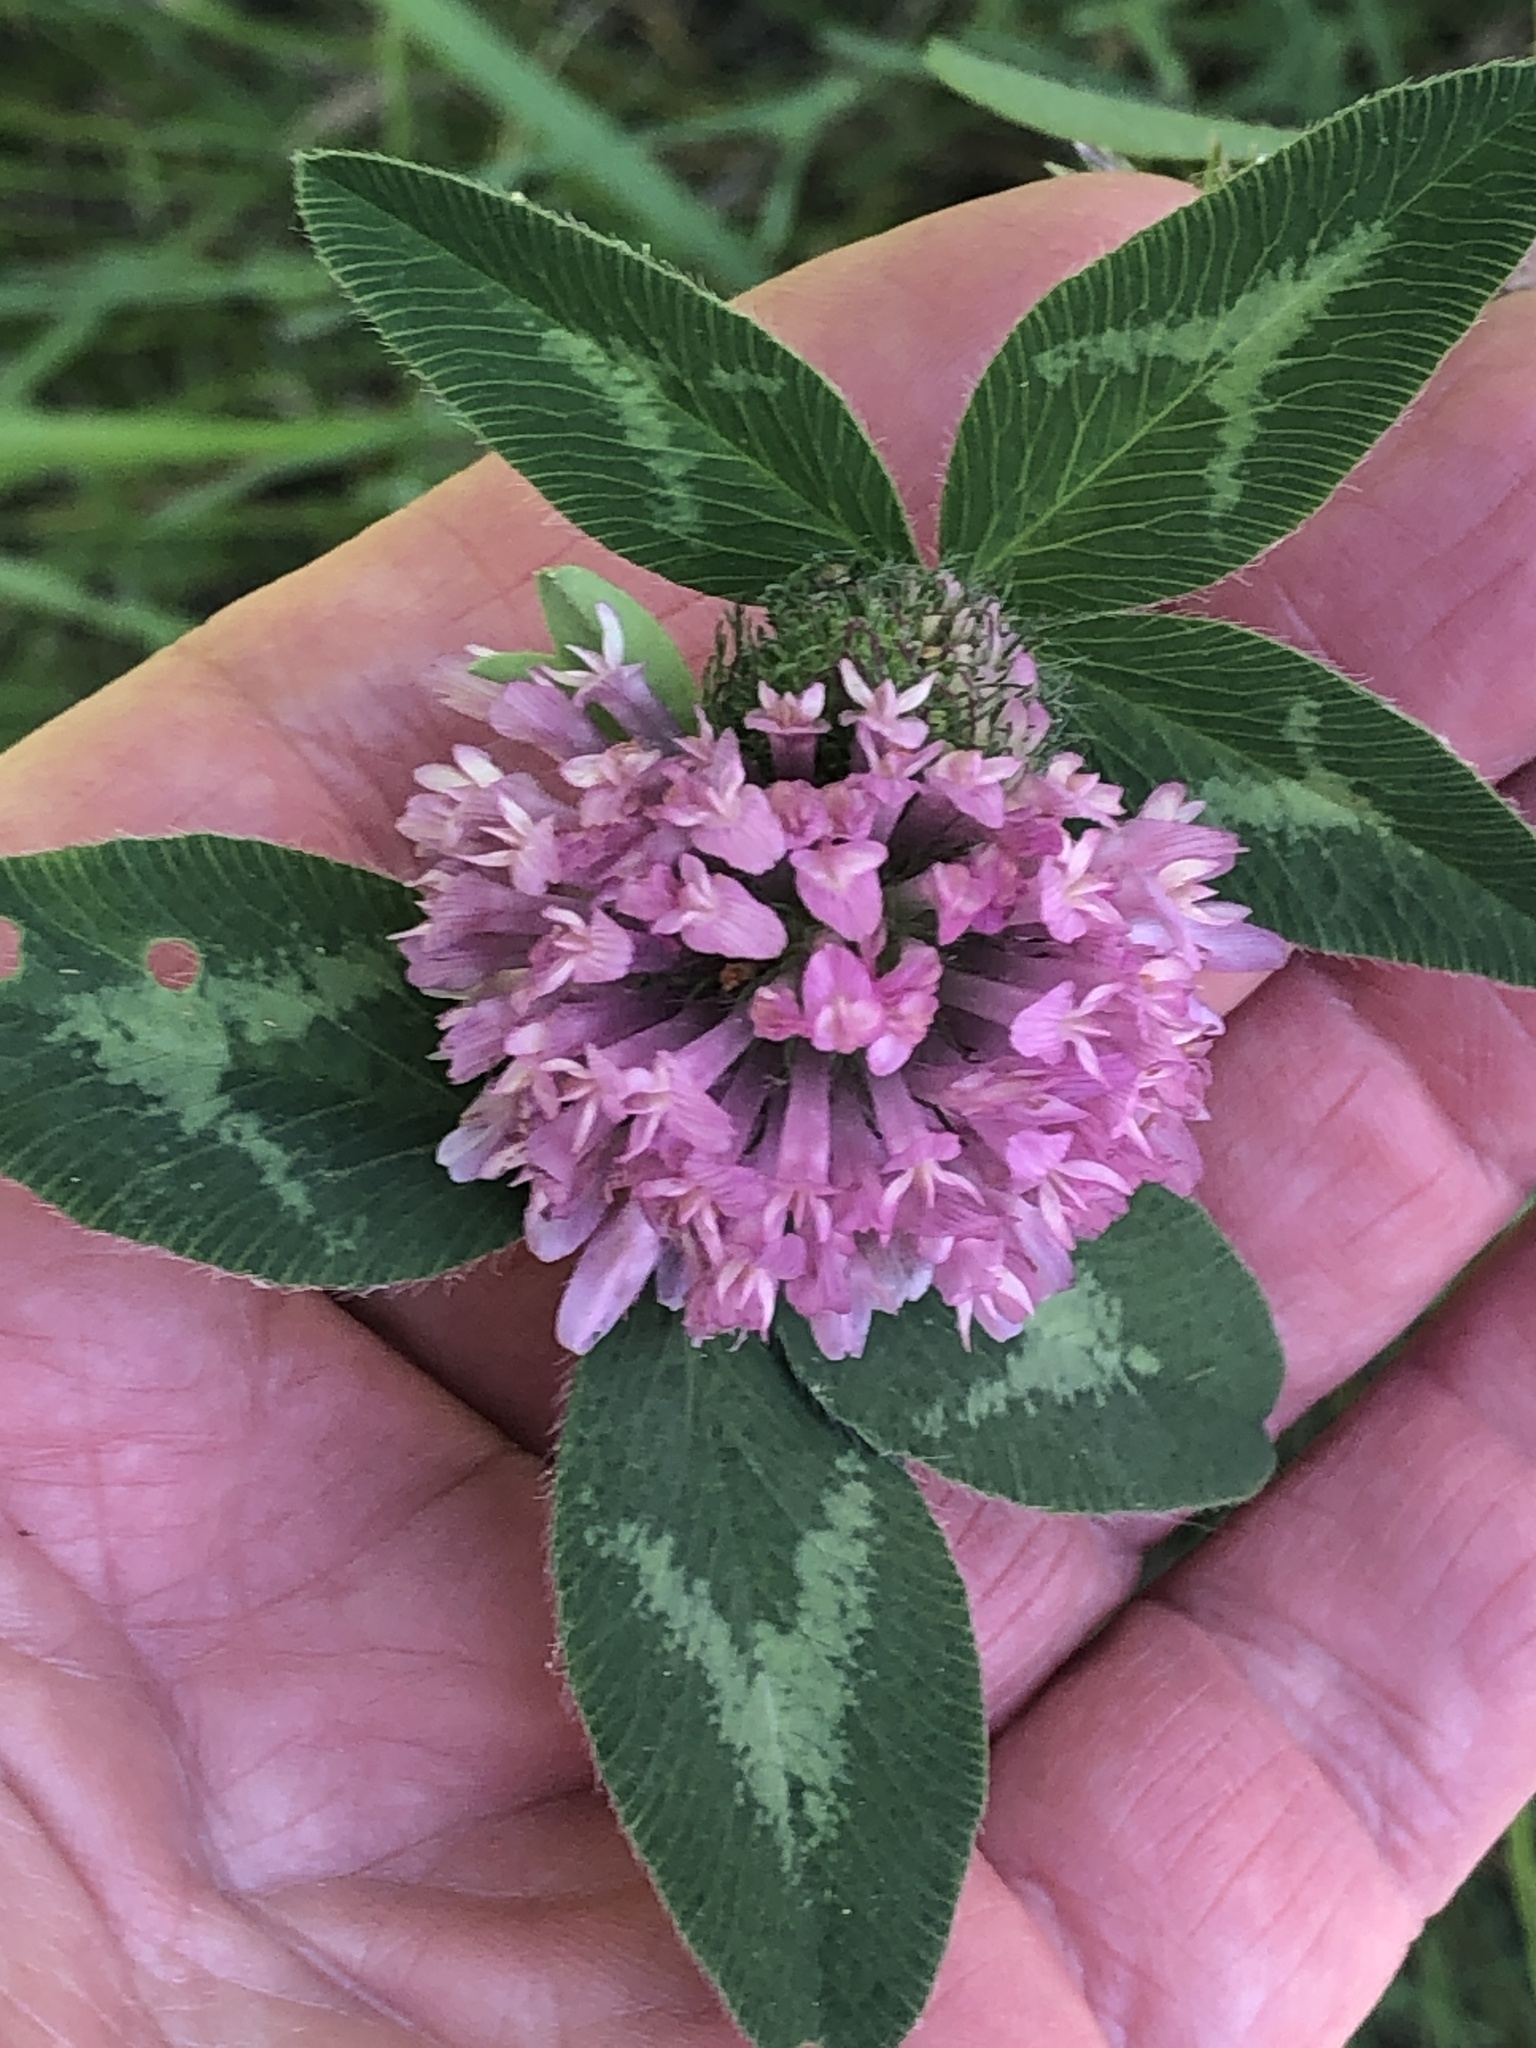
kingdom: Plantae
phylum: Tracheophyta
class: Magnoliopsida
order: Fabales
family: Fabaceae
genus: Trifolium
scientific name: Trifolium pratense
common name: Red clover
